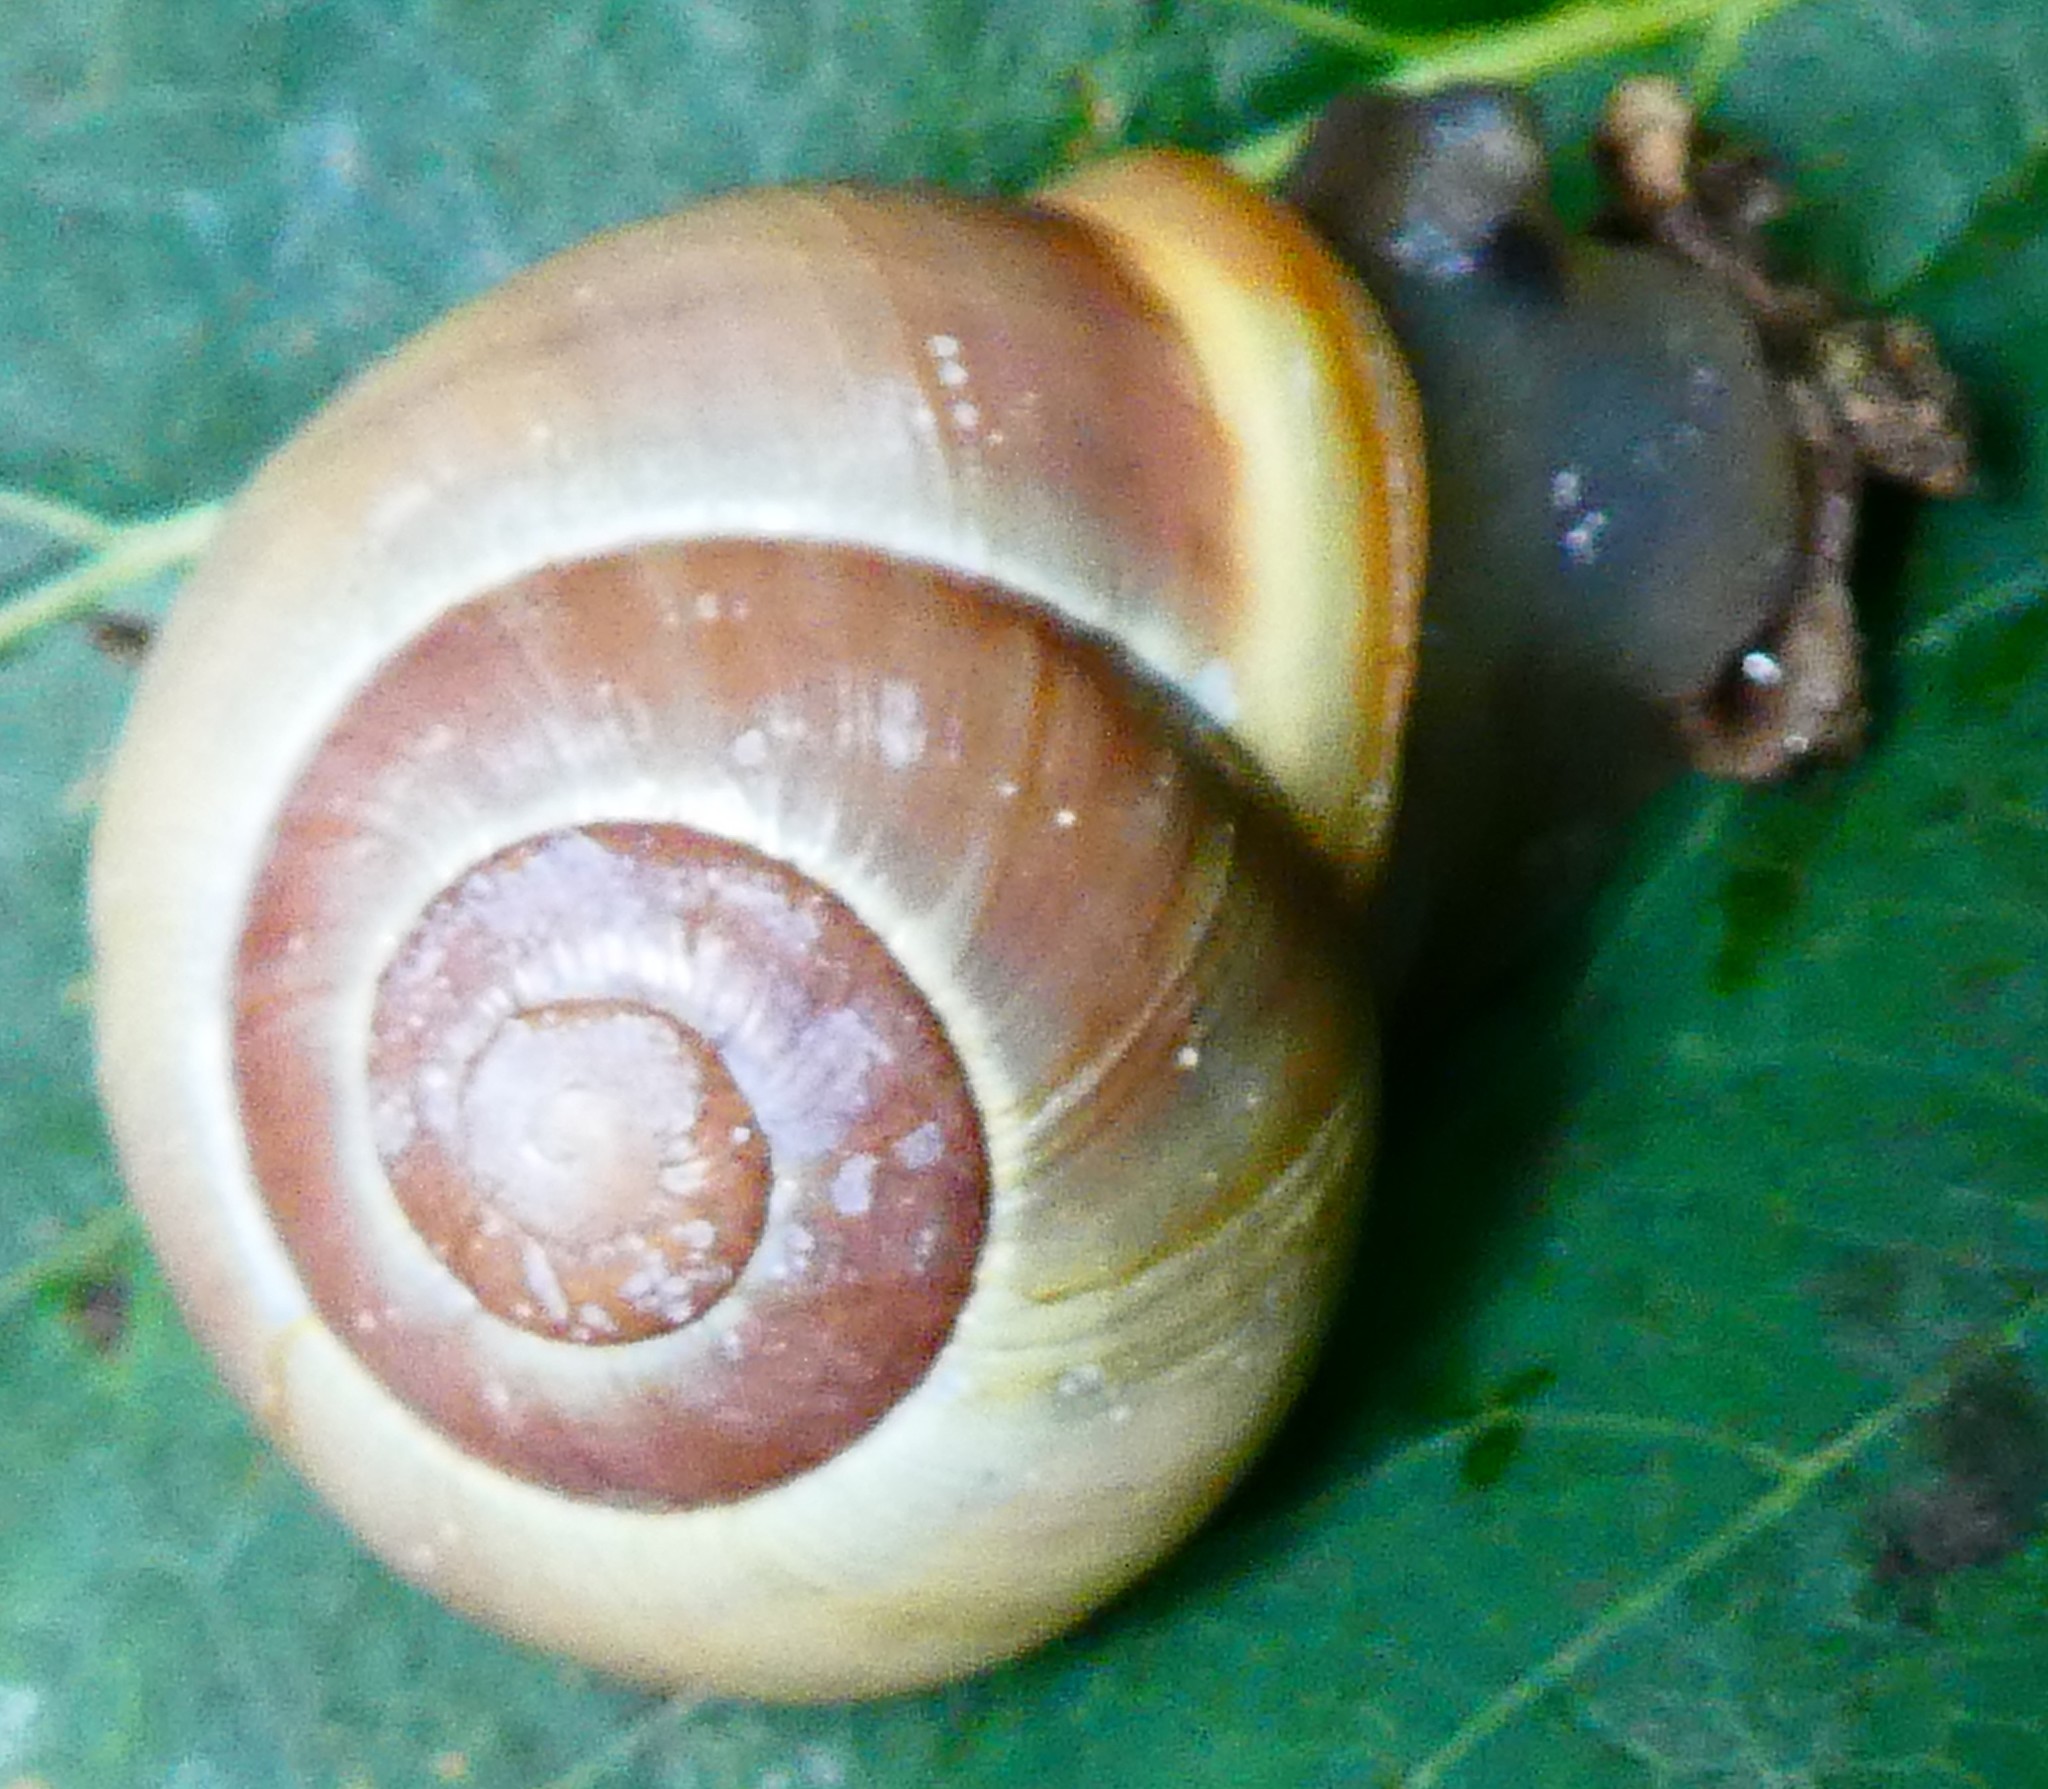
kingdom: Animalia
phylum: Mollusca
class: Gastropoda
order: Stylommatophora
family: Helicidae
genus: Cepaea
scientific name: Cepaea hortensis
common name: White-lip gardensnail
